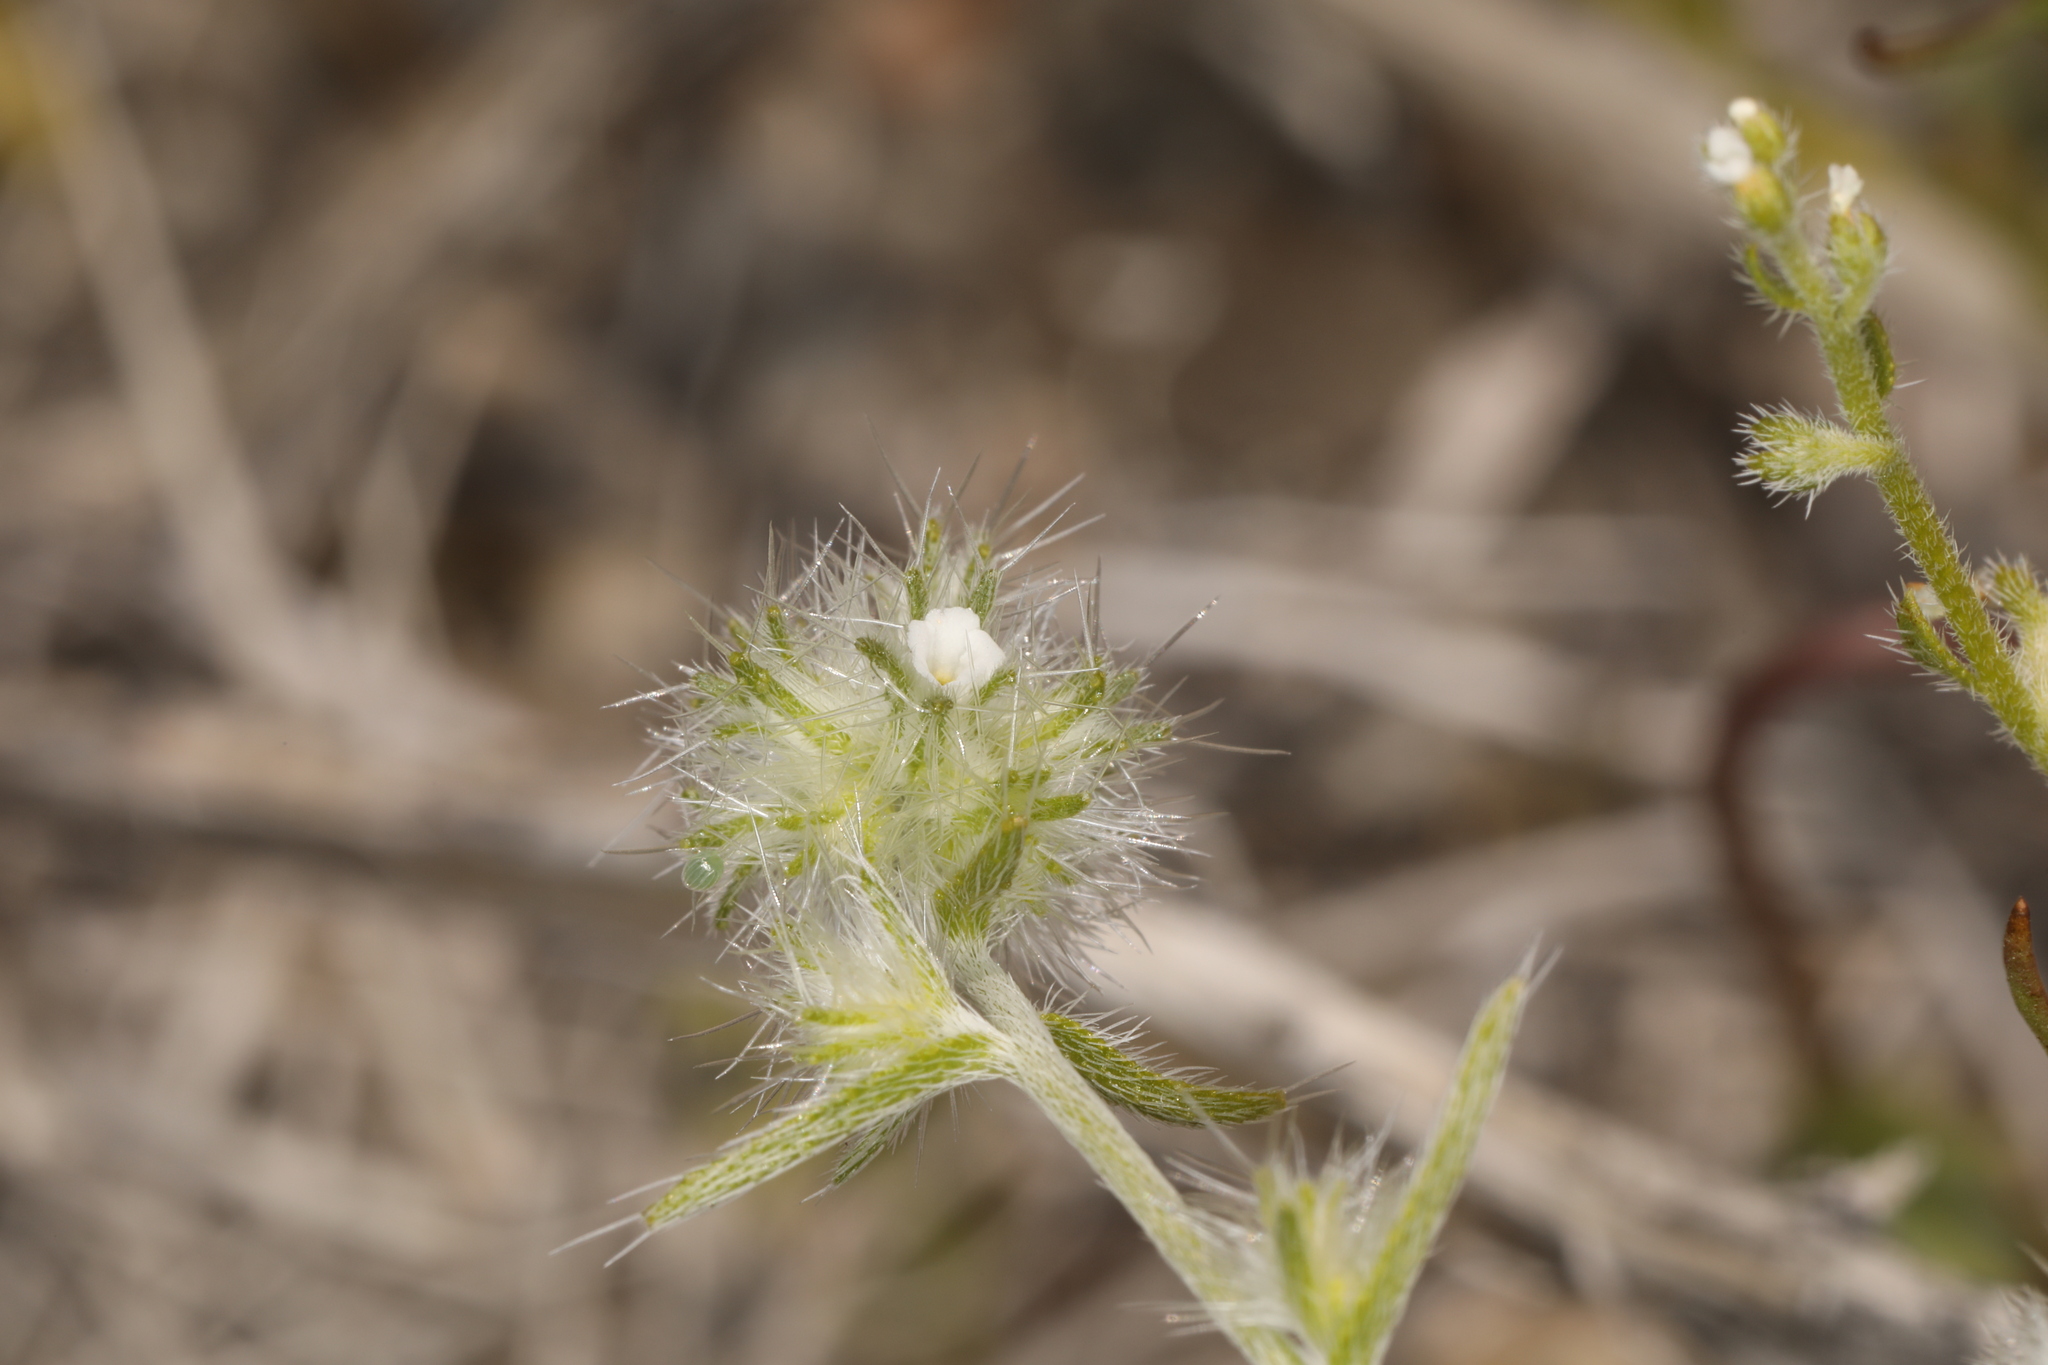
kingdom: Plantae
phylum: Tracheophyta
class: Magnoliopsida
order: Boraginales
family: Boraginaceae
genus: Cryptantha
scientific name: Cryptantha nevadensis
